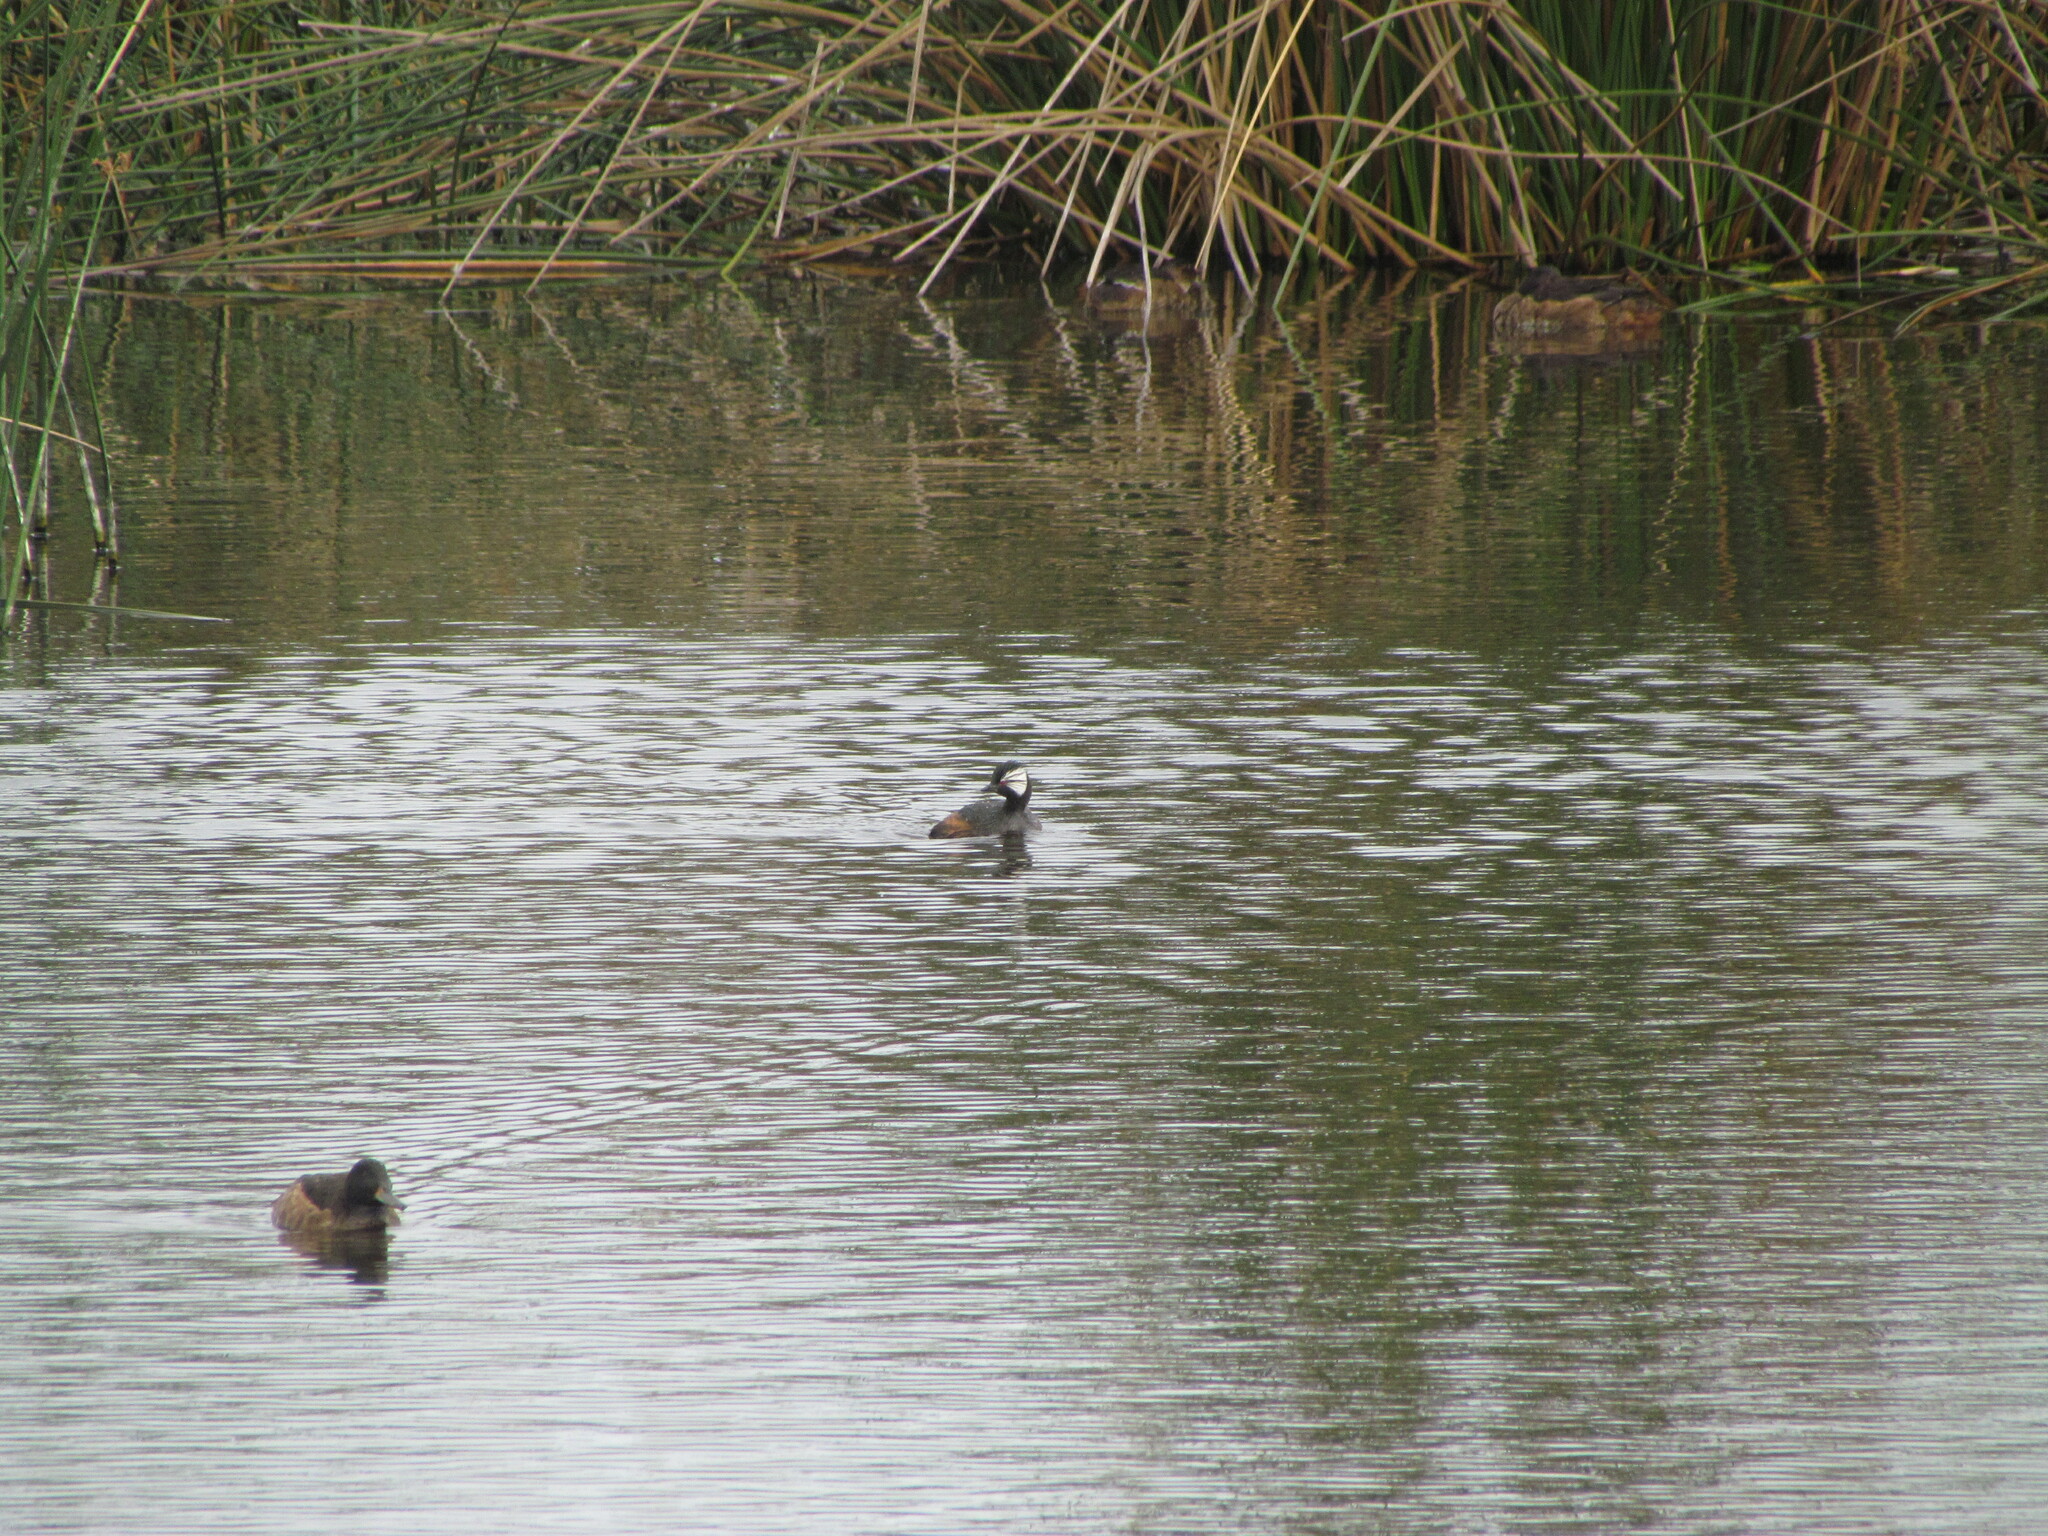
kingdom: Animalia
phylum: Chordata
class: Aves
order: Podicipediformes
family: Podicipedidae
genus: Rollandia
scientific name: Rollandia rolland
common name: White-tufted grebe
